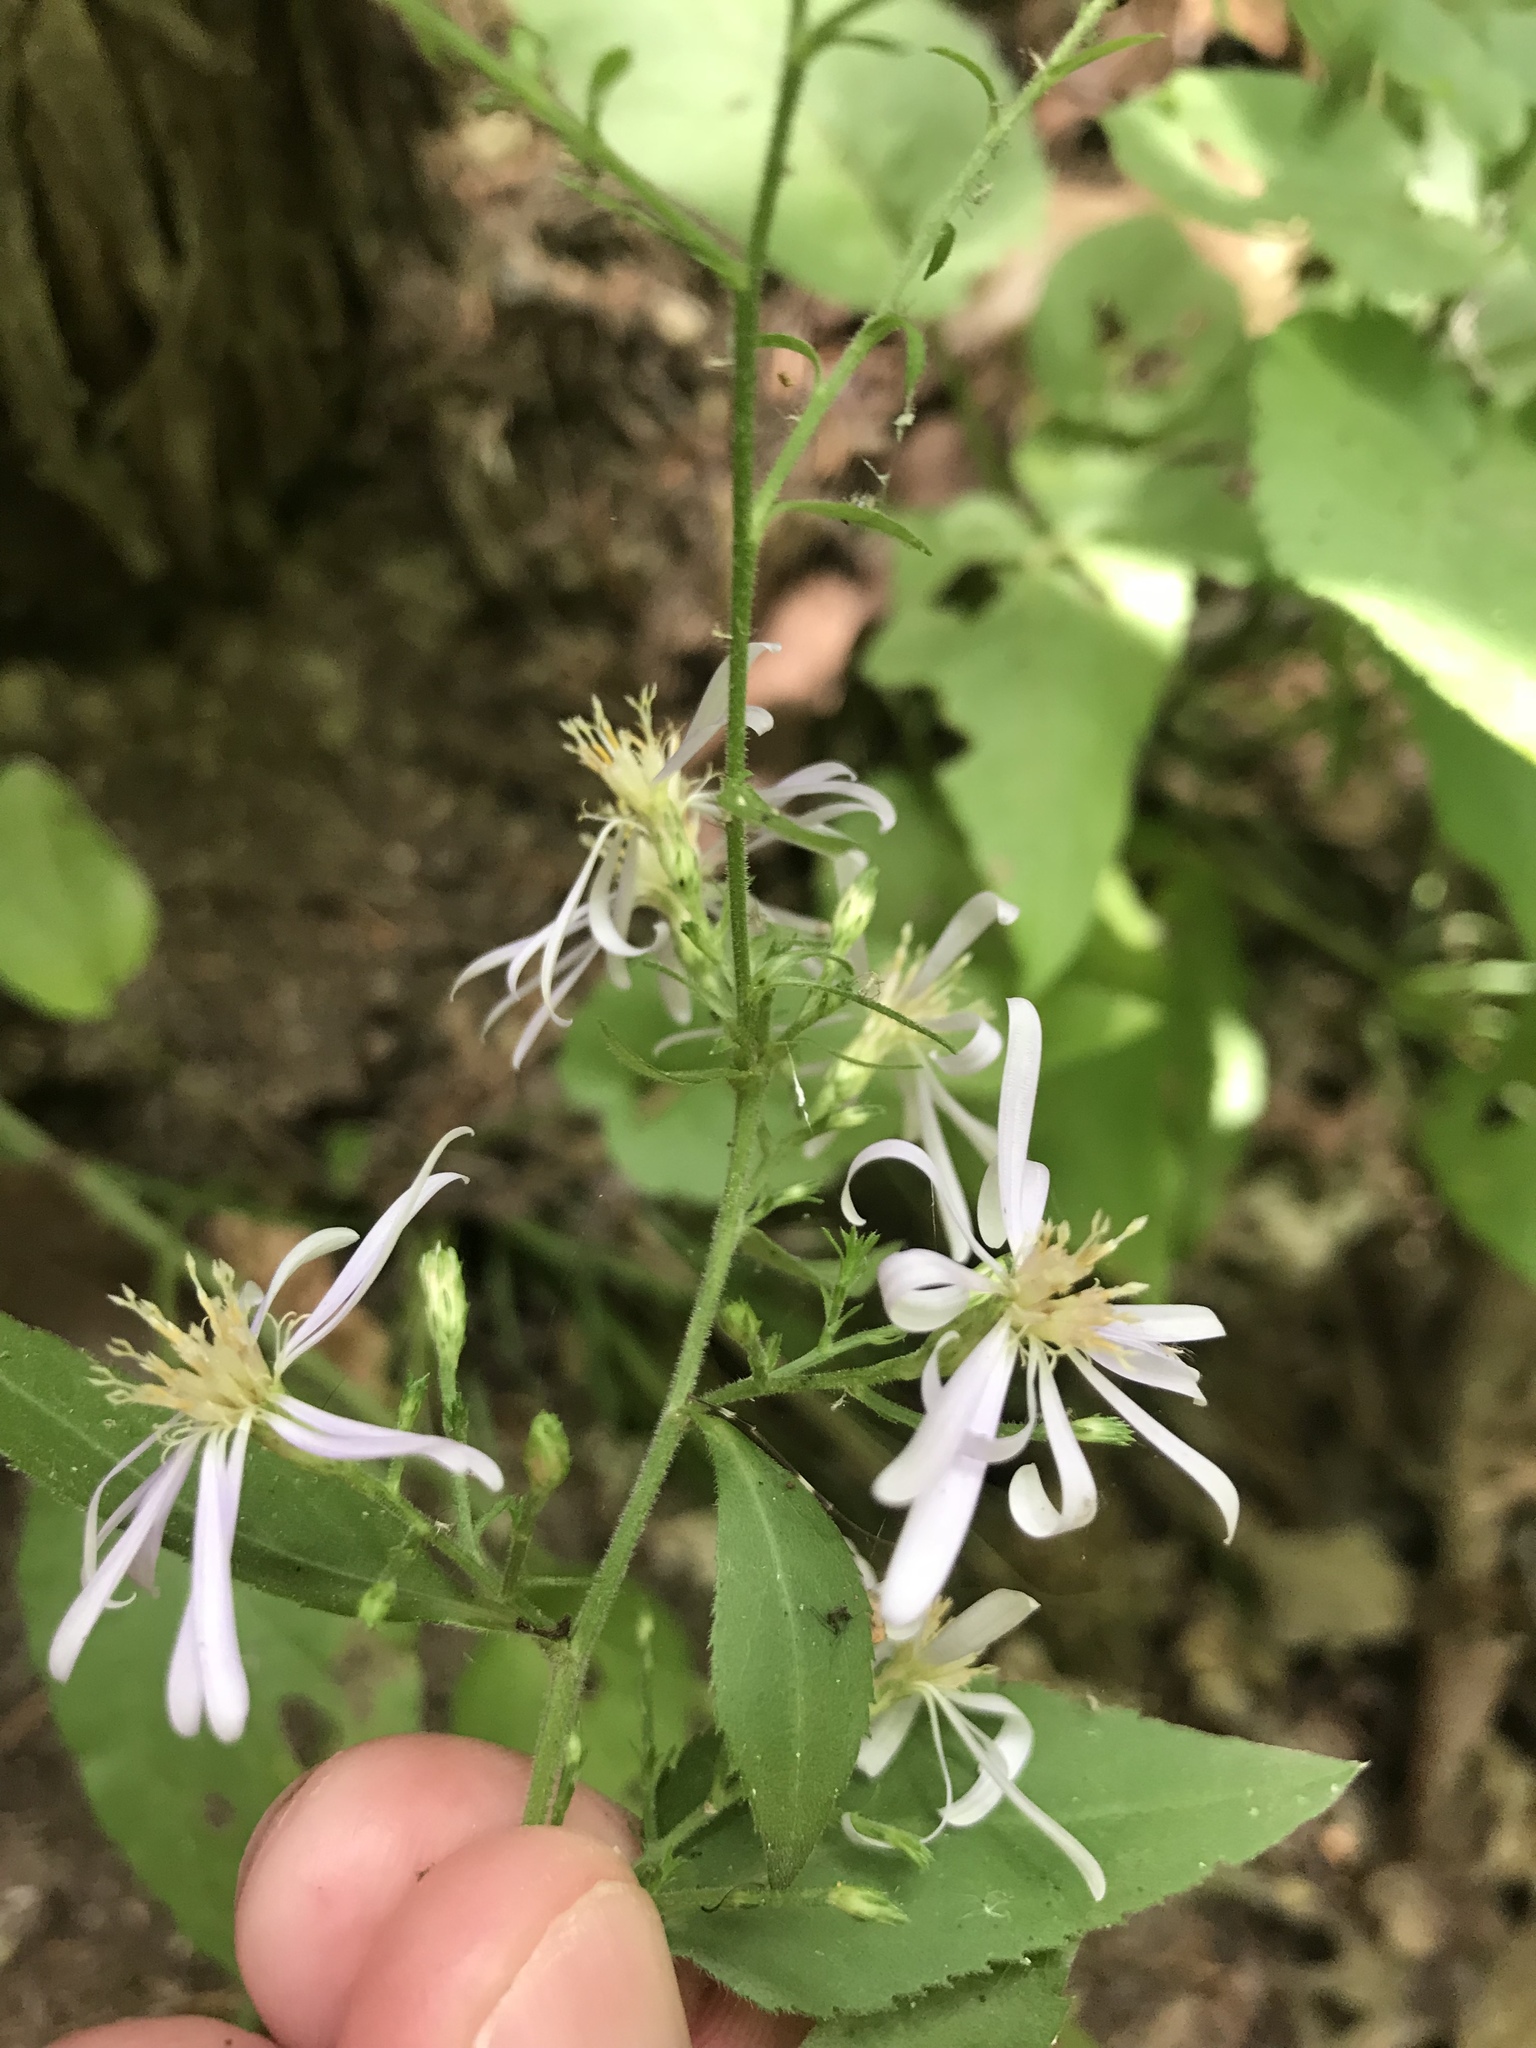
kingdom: Plantae
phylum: Tracheophyta
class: Magnoliopsida
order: Asterales
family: Asteraceae
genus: Symphyotrichum
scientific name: Symphyotrichum drummondii
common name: Drummond's aster
